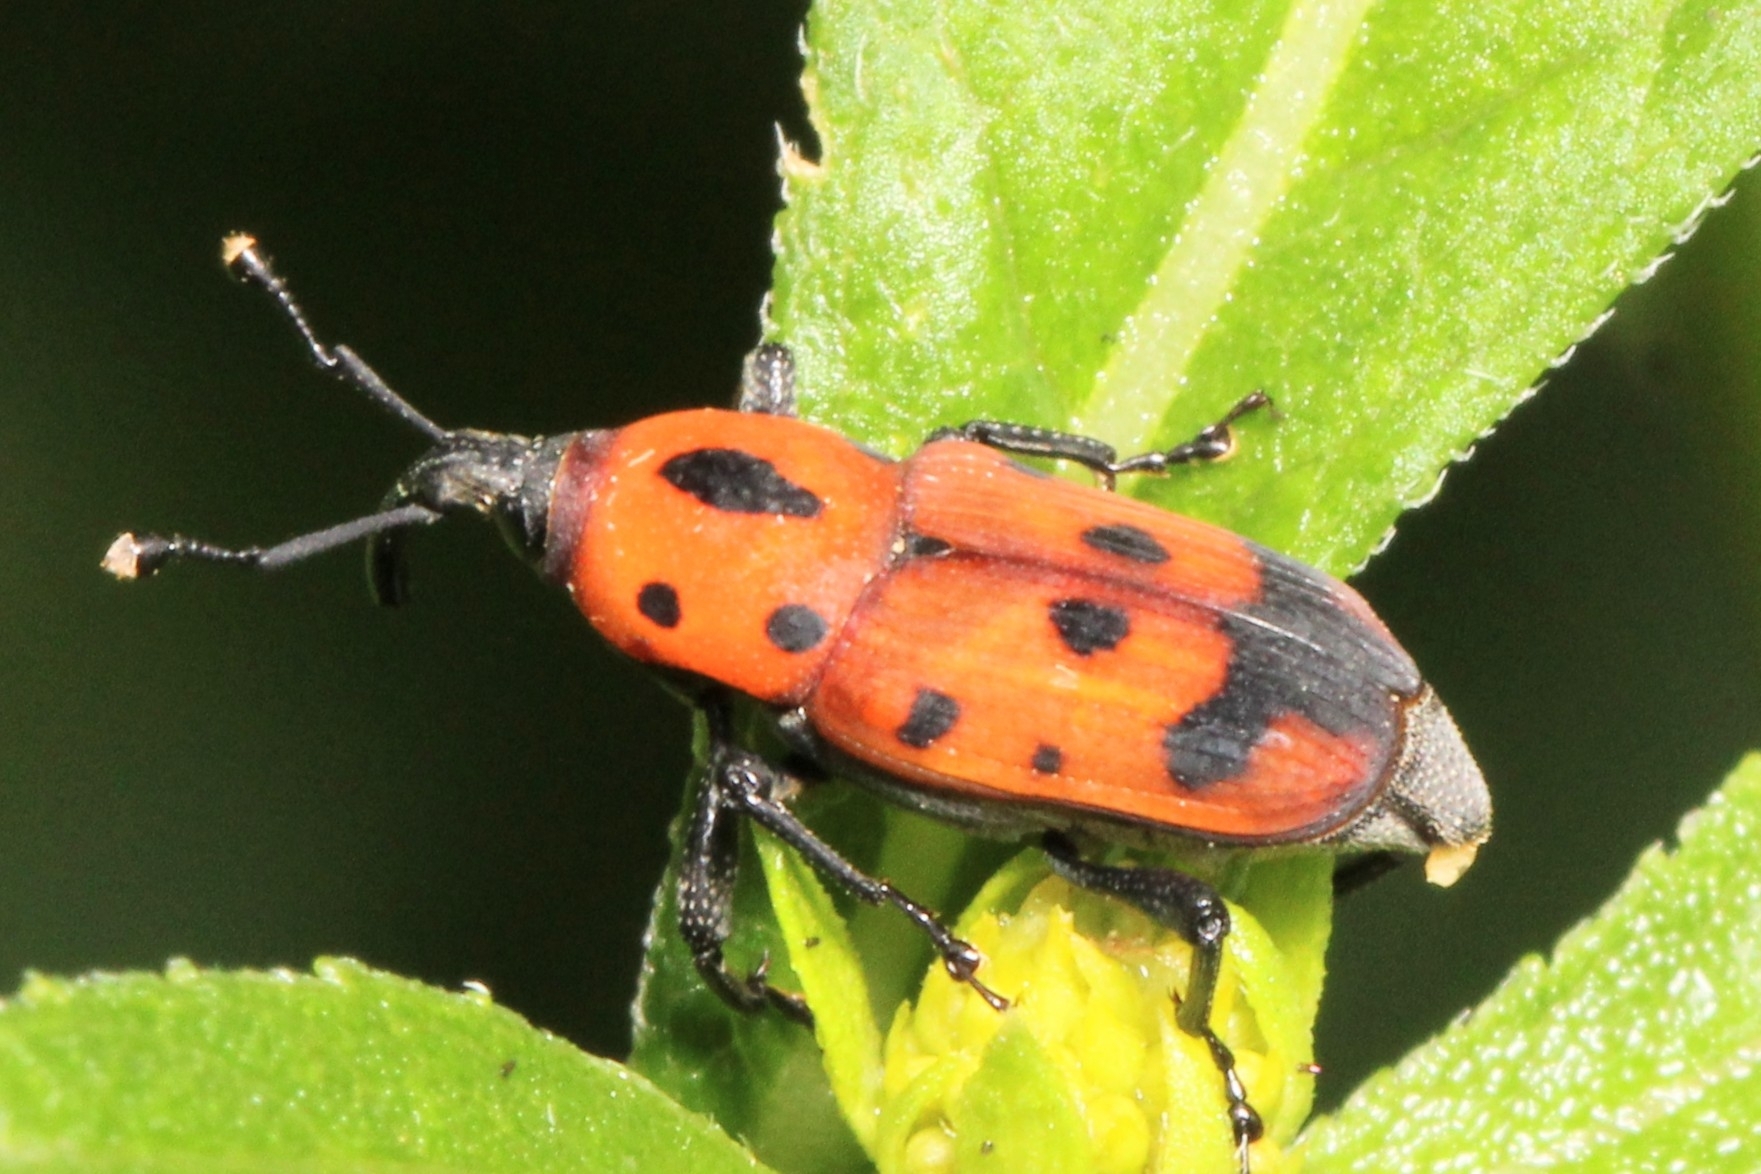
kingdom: Animalia
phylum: Arthropoda
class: Insecta
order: Coleoptera
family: Dryophthoridae
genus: Rhodobaenus
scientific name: Rhodobaenus quinquepunctatus
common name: Cocklebur weevil
